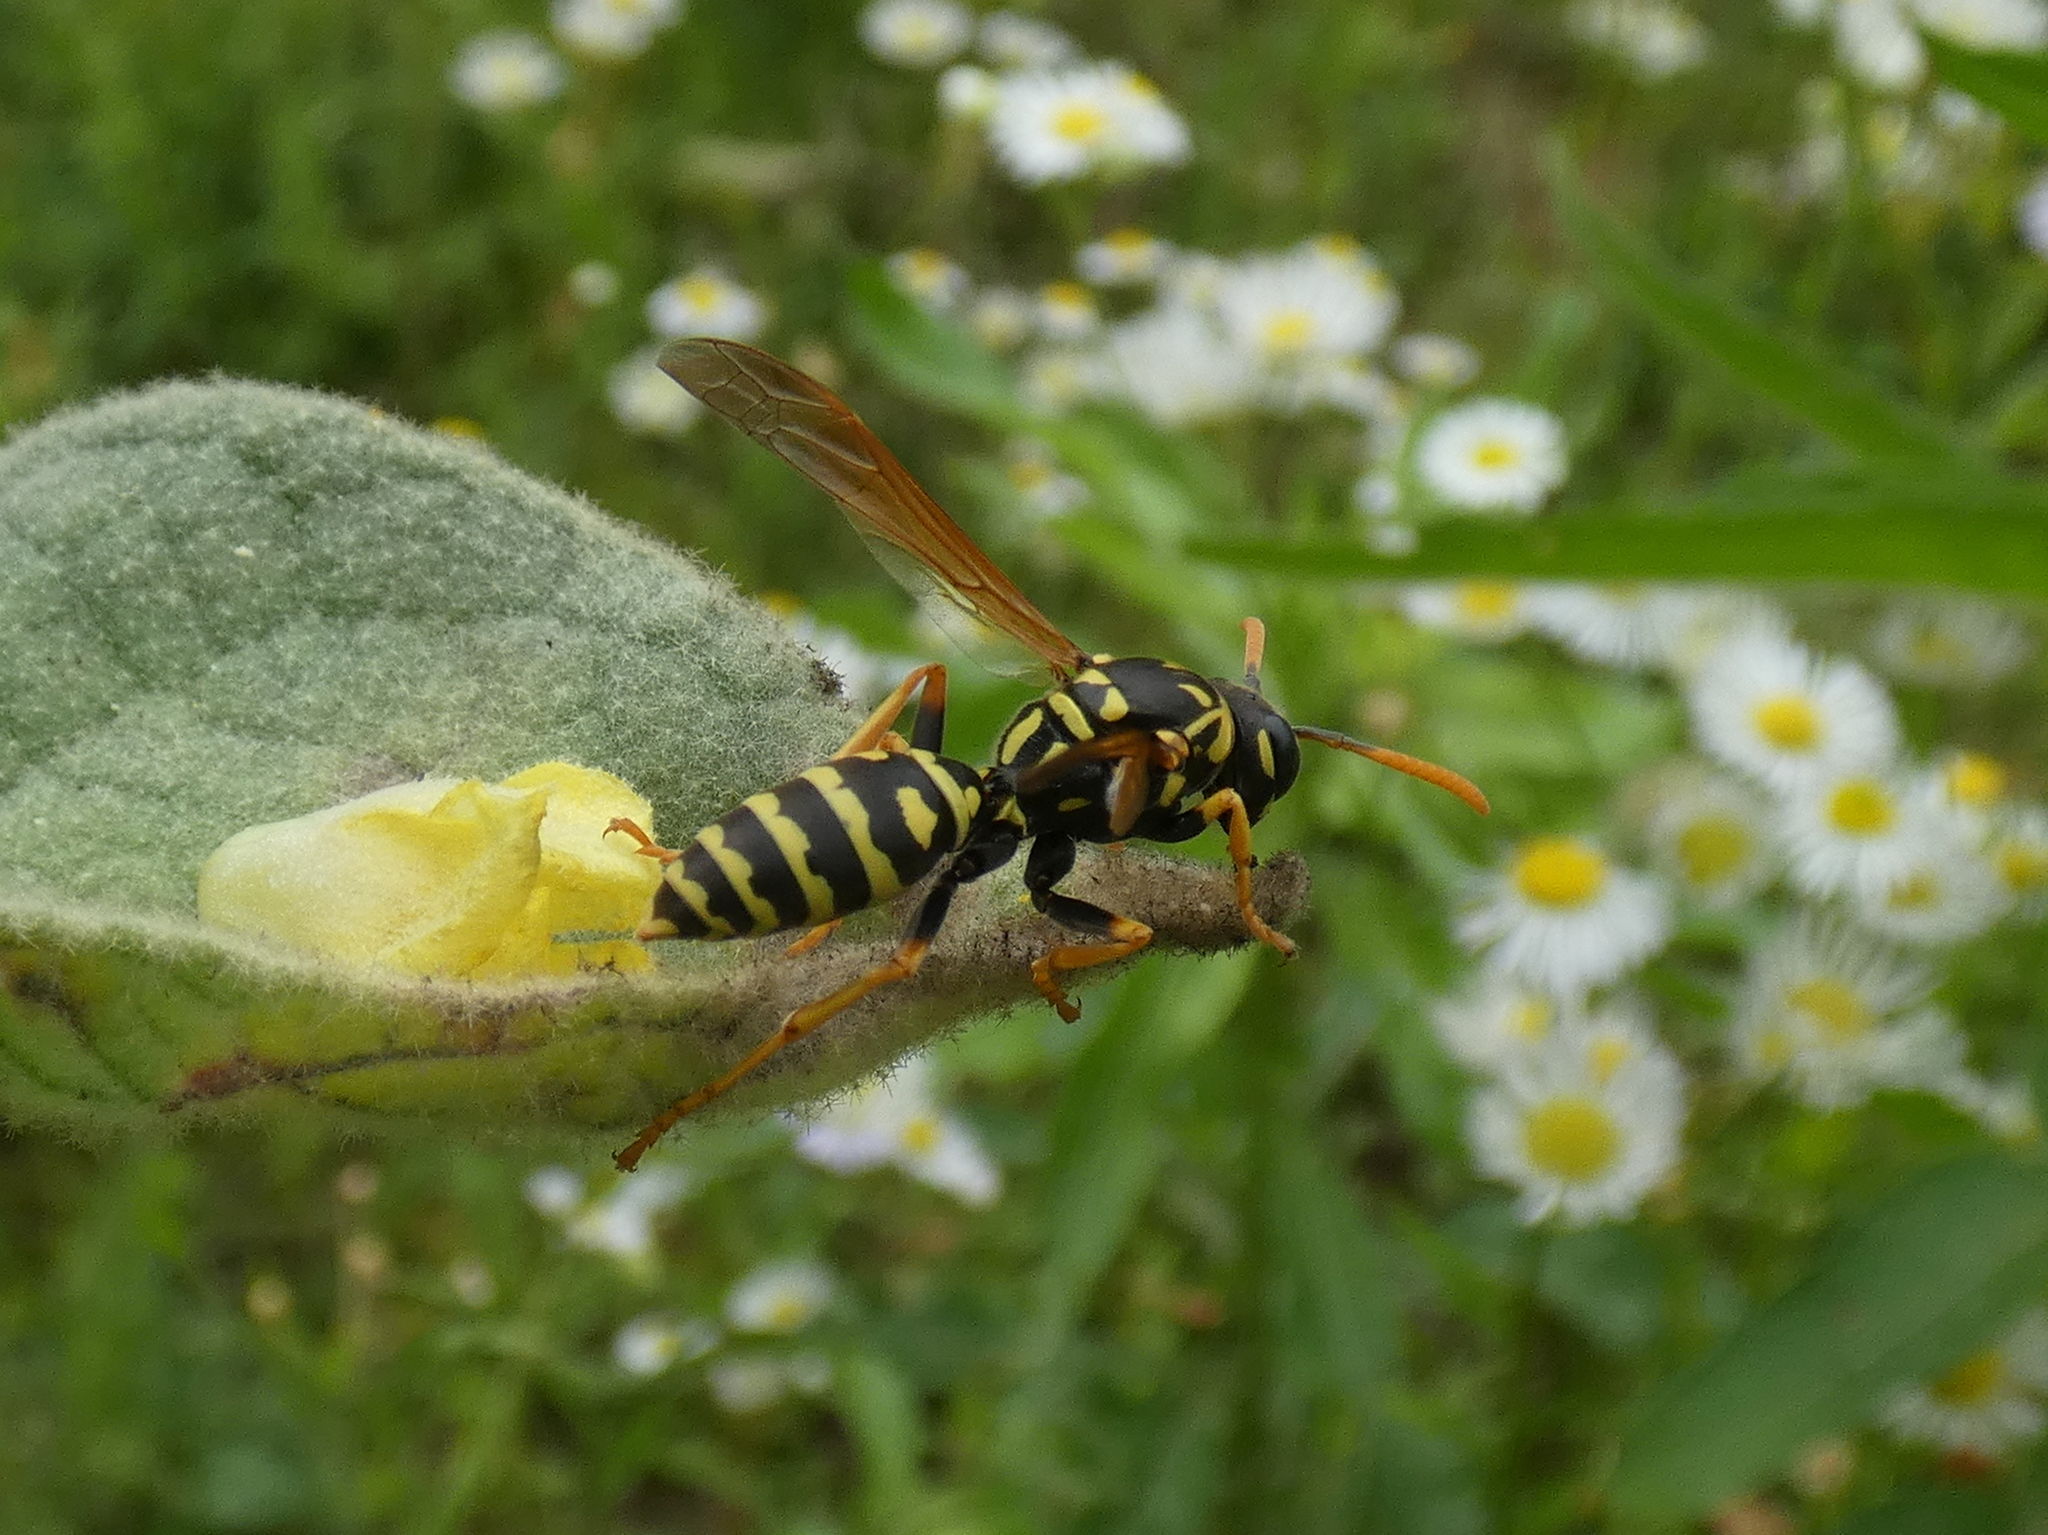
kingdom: Animalia
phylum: Arthropoda
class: Insecta
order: Hymenoptera
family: Eumenidae
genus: Polistes
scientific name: Polistes dominula
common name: Paper wasp
